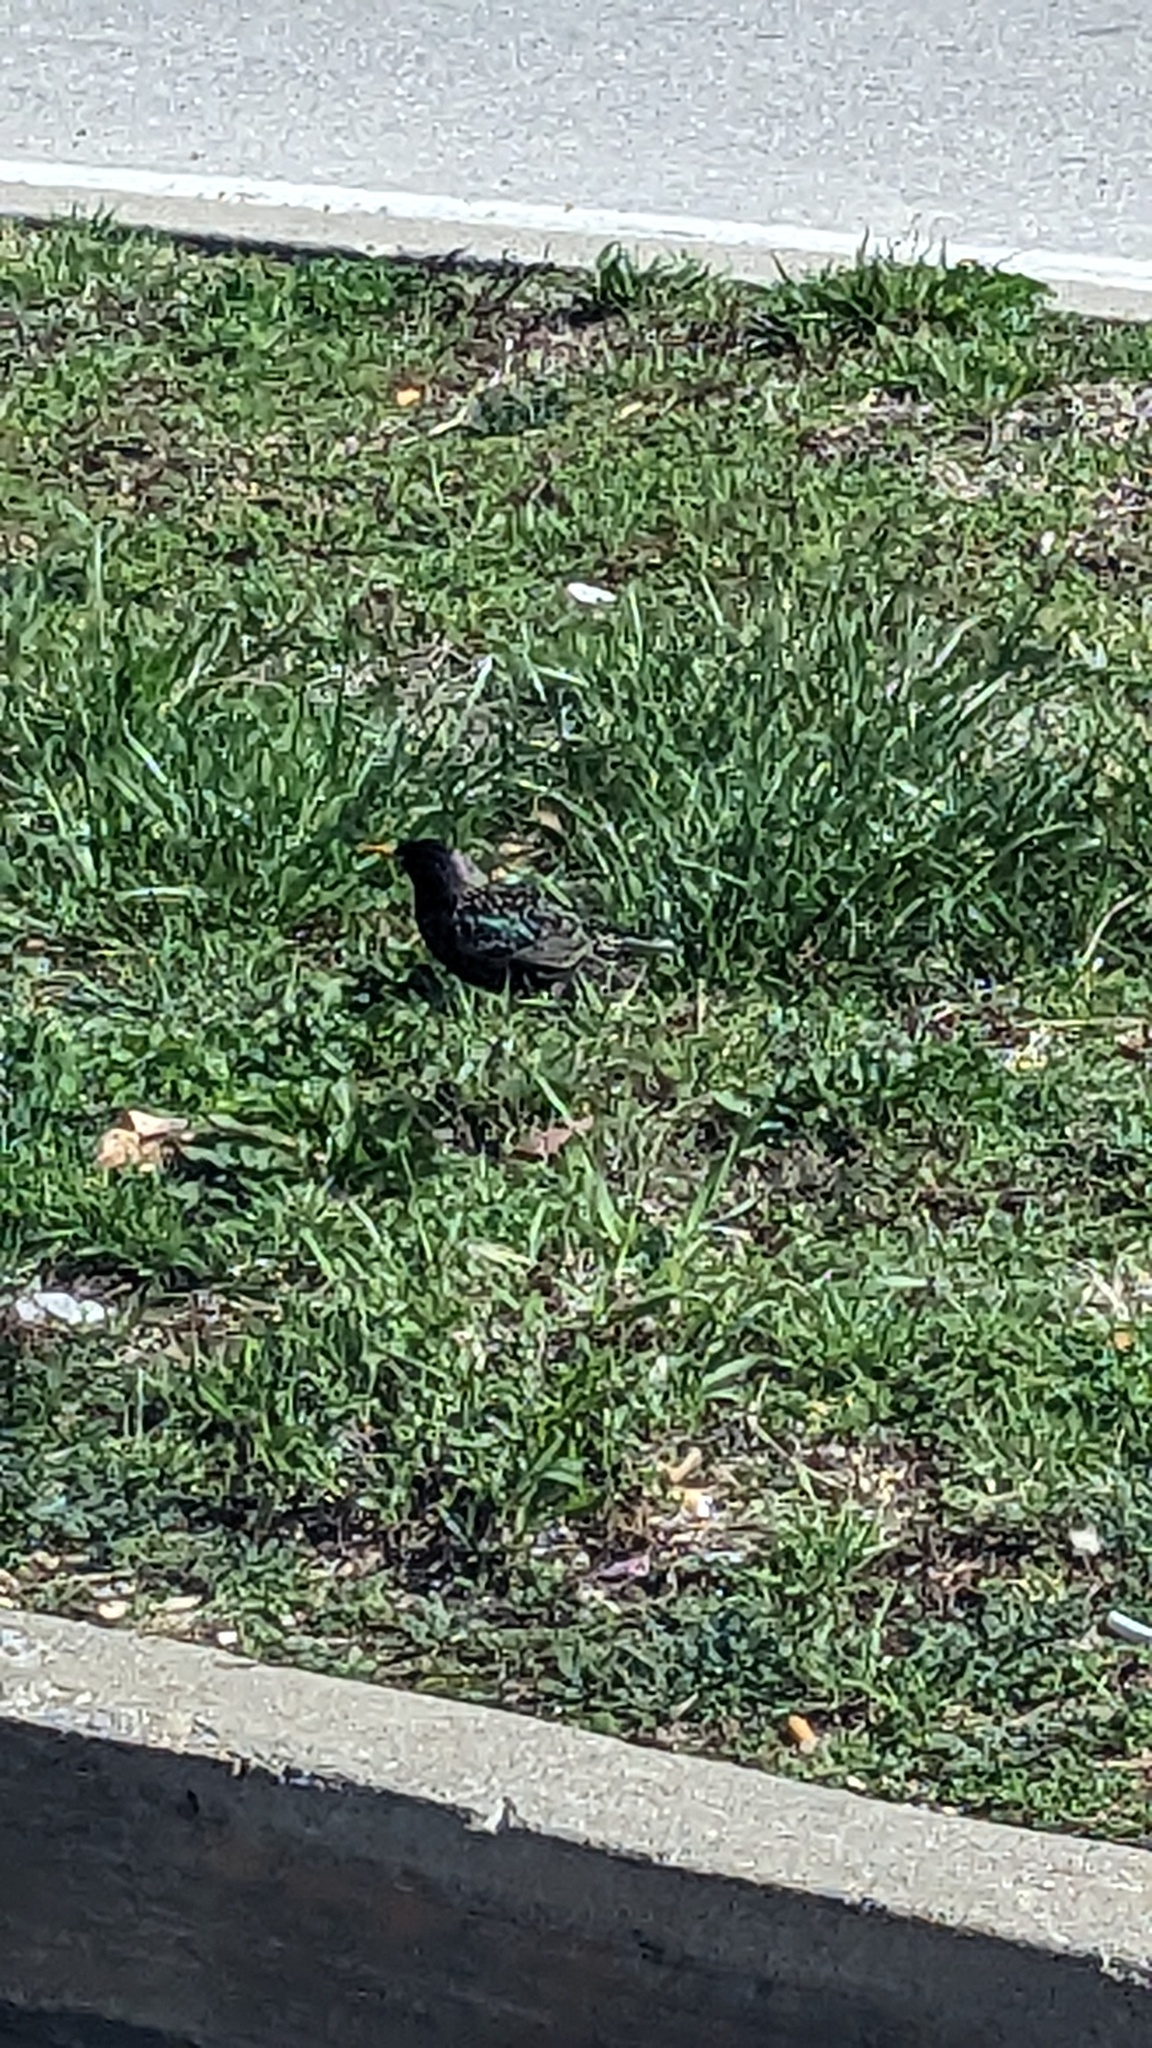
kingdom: Animalia
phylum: Chordata
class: Aves
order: Passeriformes
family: Sturnidae
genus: Sturnus
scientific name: Sturnus vulgaris
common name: Common starling
